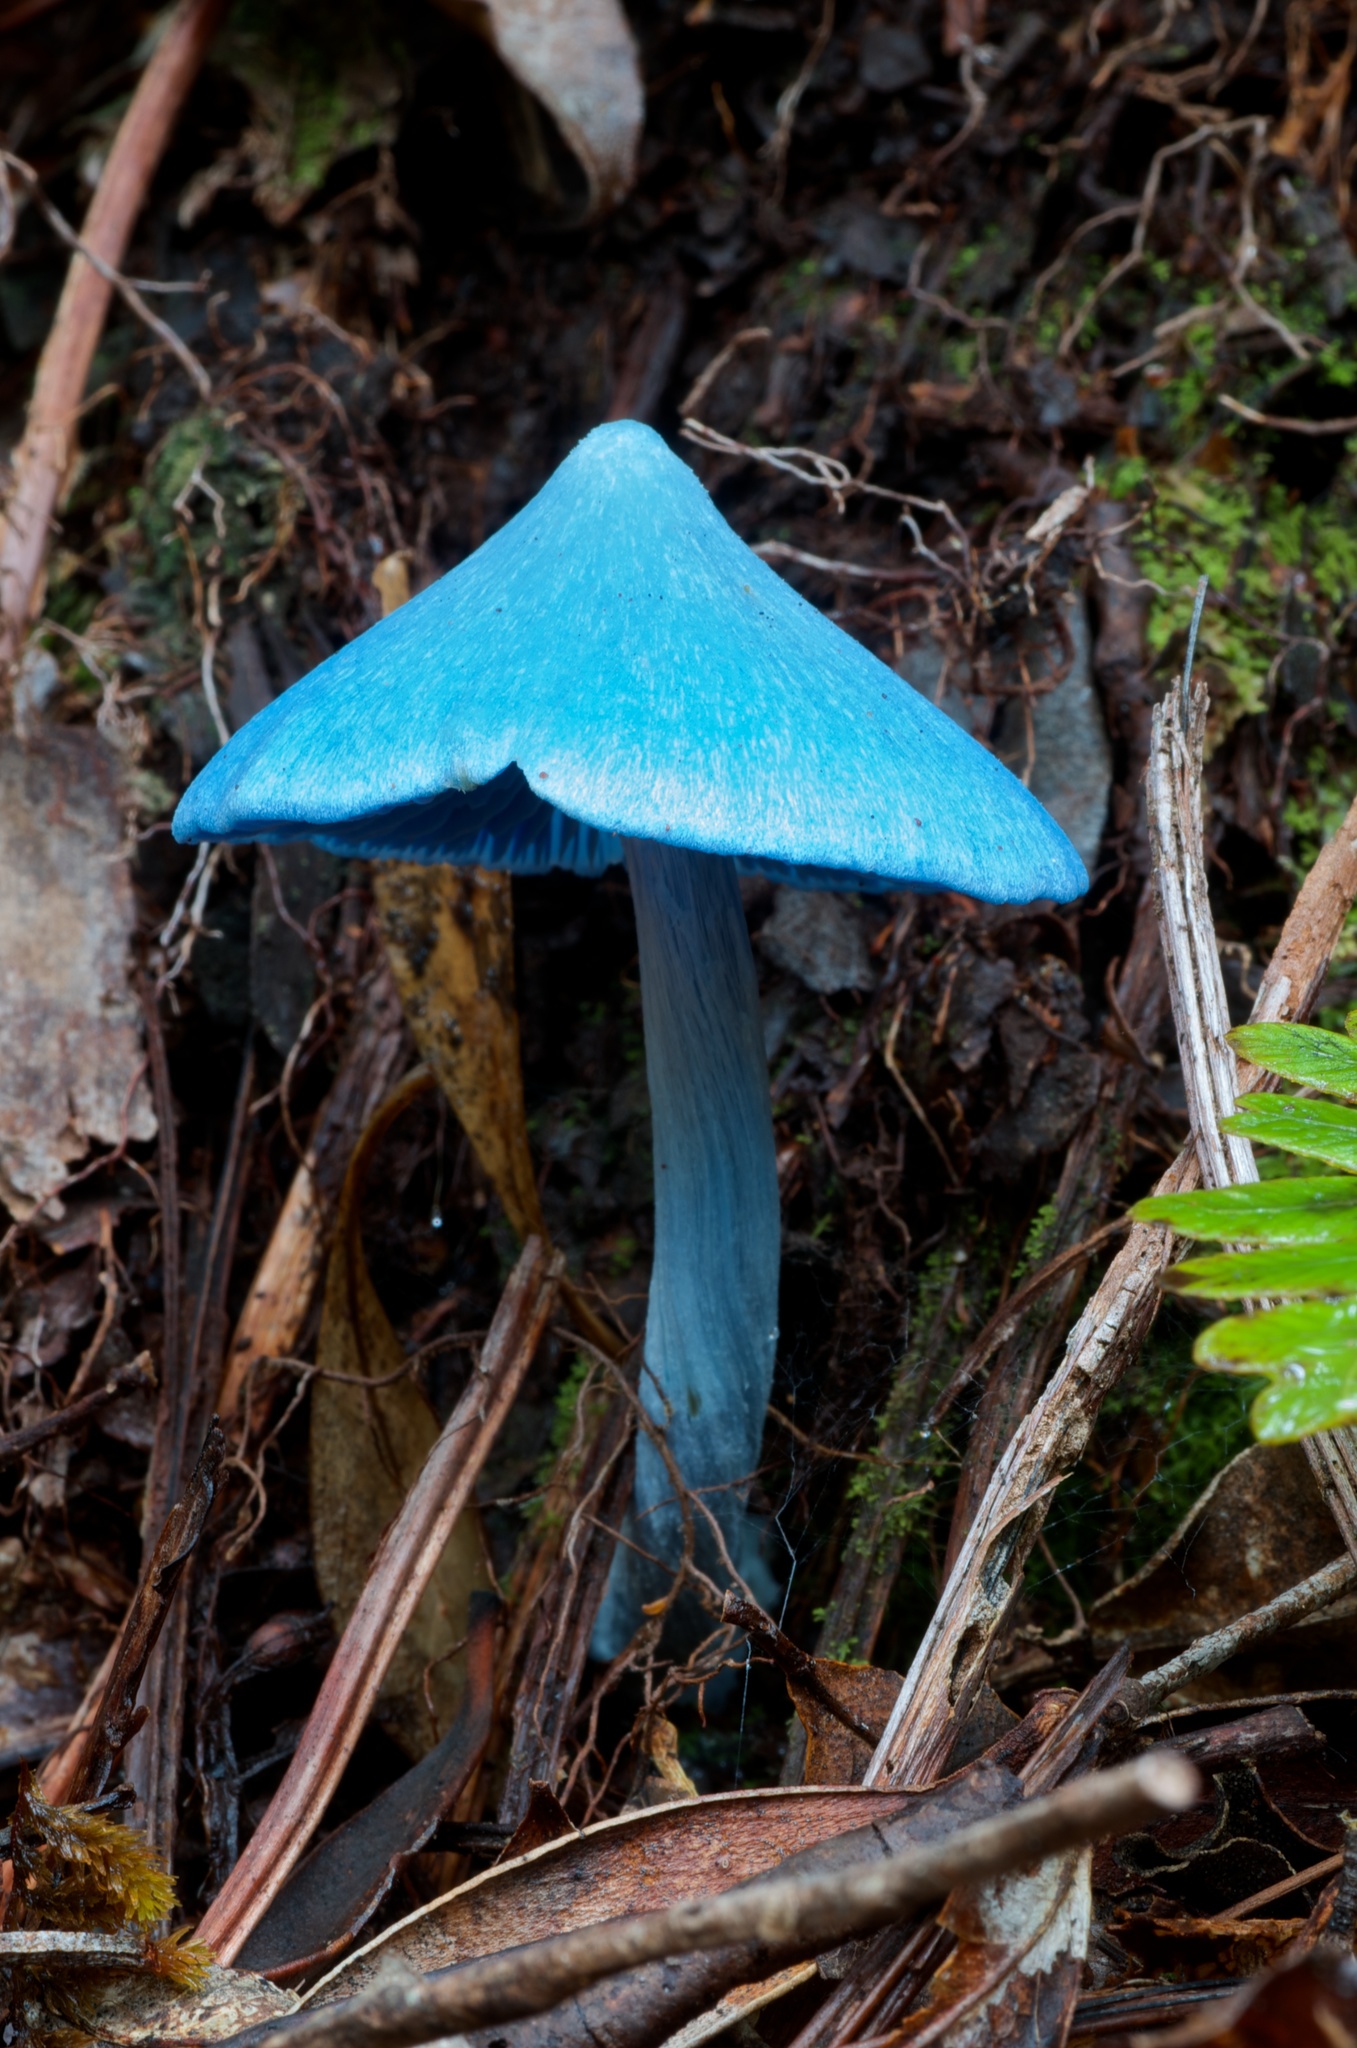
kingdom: Fungi
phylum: Basidiomycota
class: Agaricomycetes
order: Agaricales
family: Entolomataceae
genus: Entoloma
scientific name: Entoloma hochstetteri
